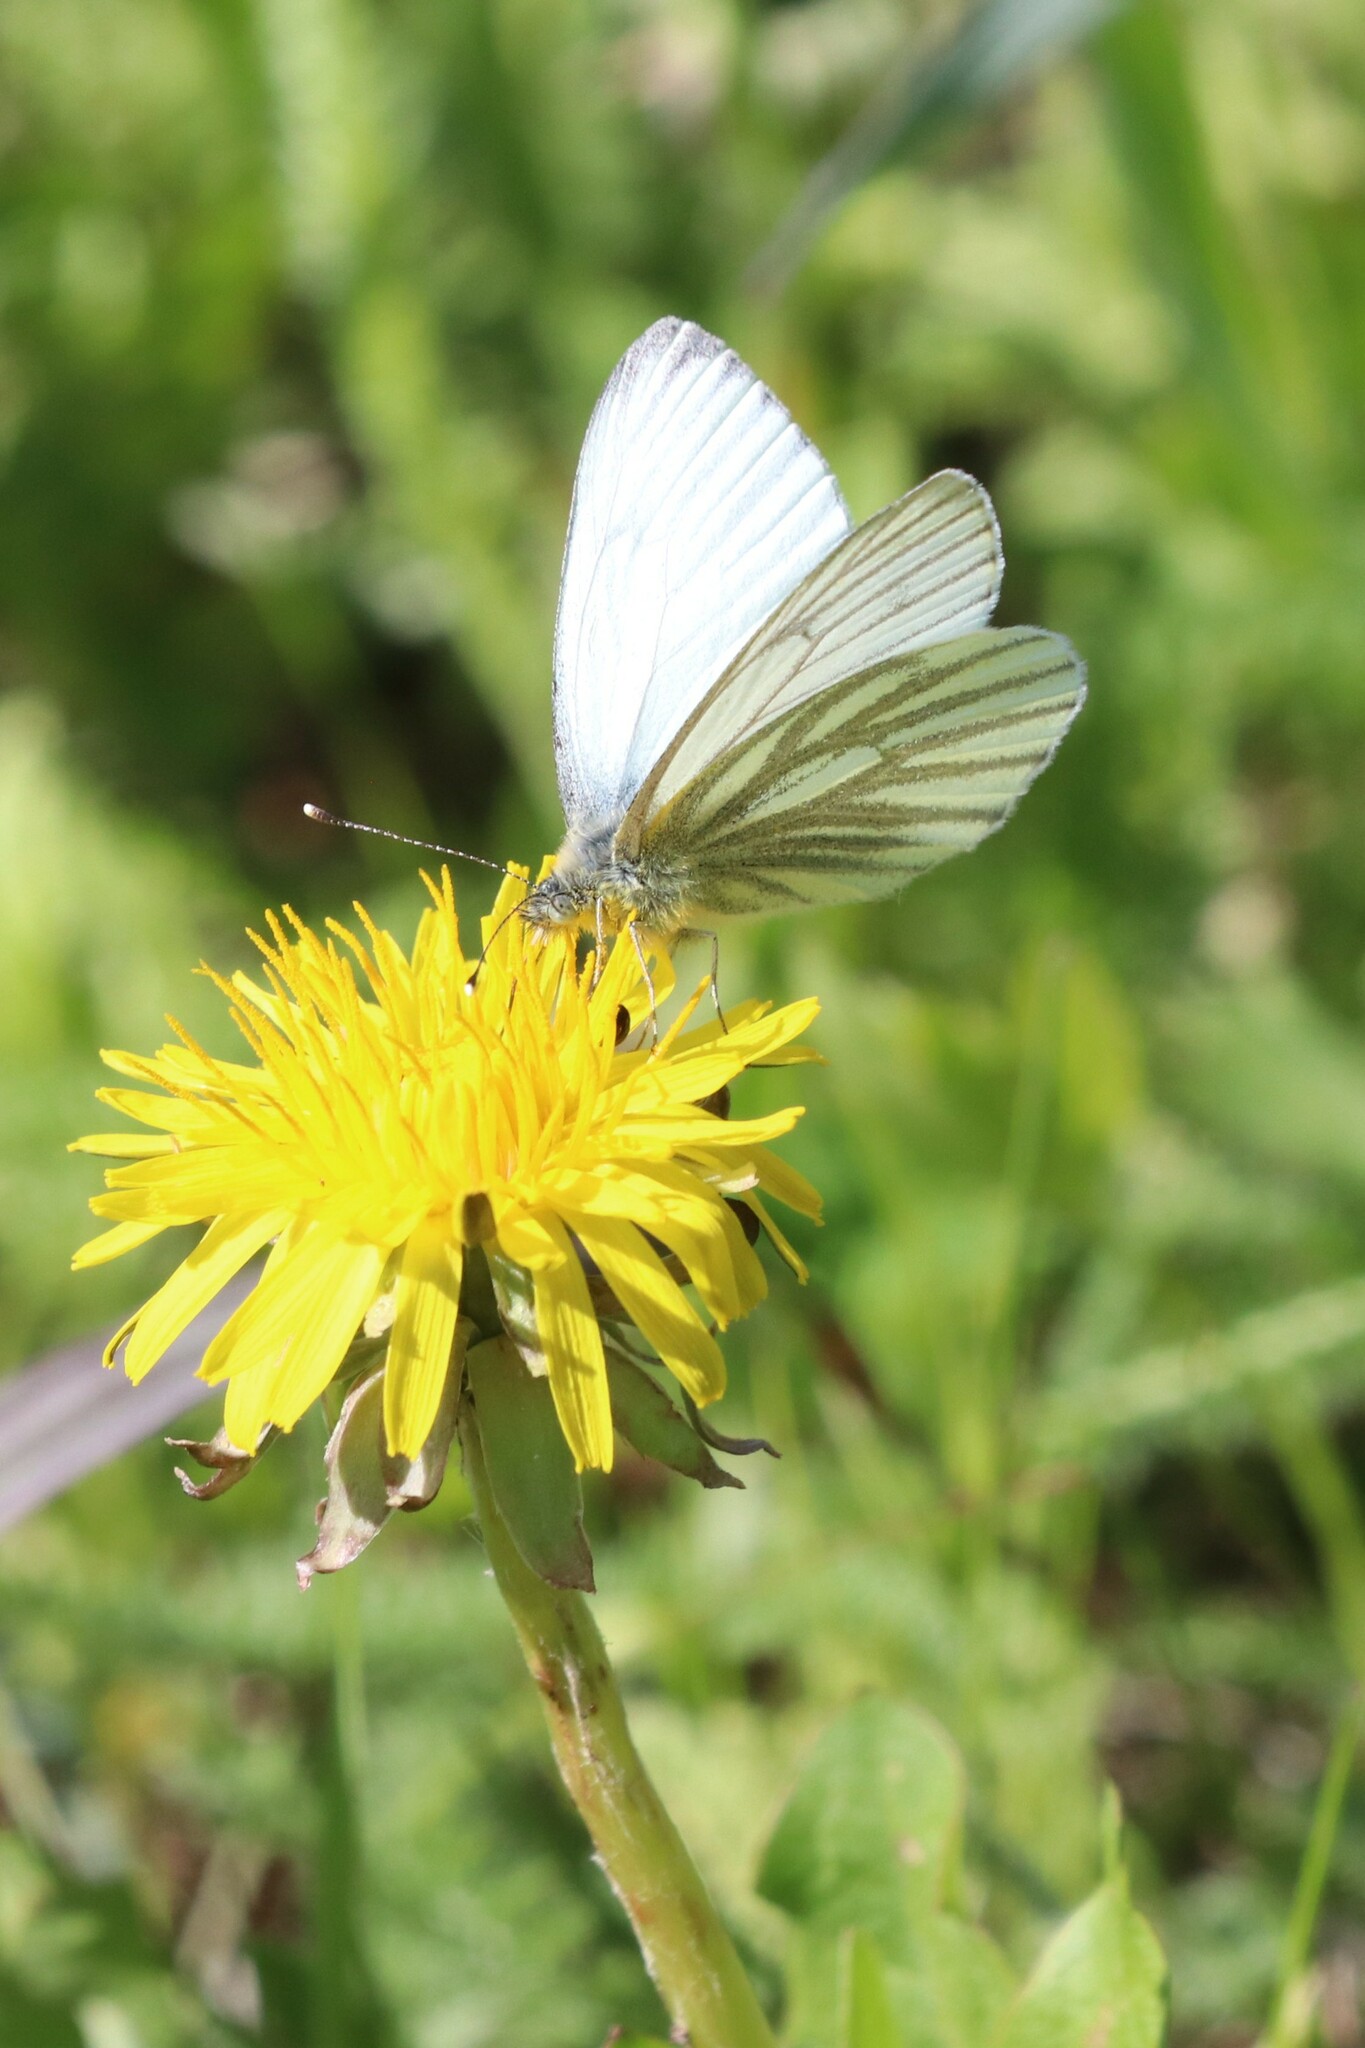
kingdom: Animalia
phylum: Arthropoda
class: Insecta
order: Lepidoptera
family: Pieridae
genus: Pieris
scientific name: Pieris napi
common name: Green-veined white
